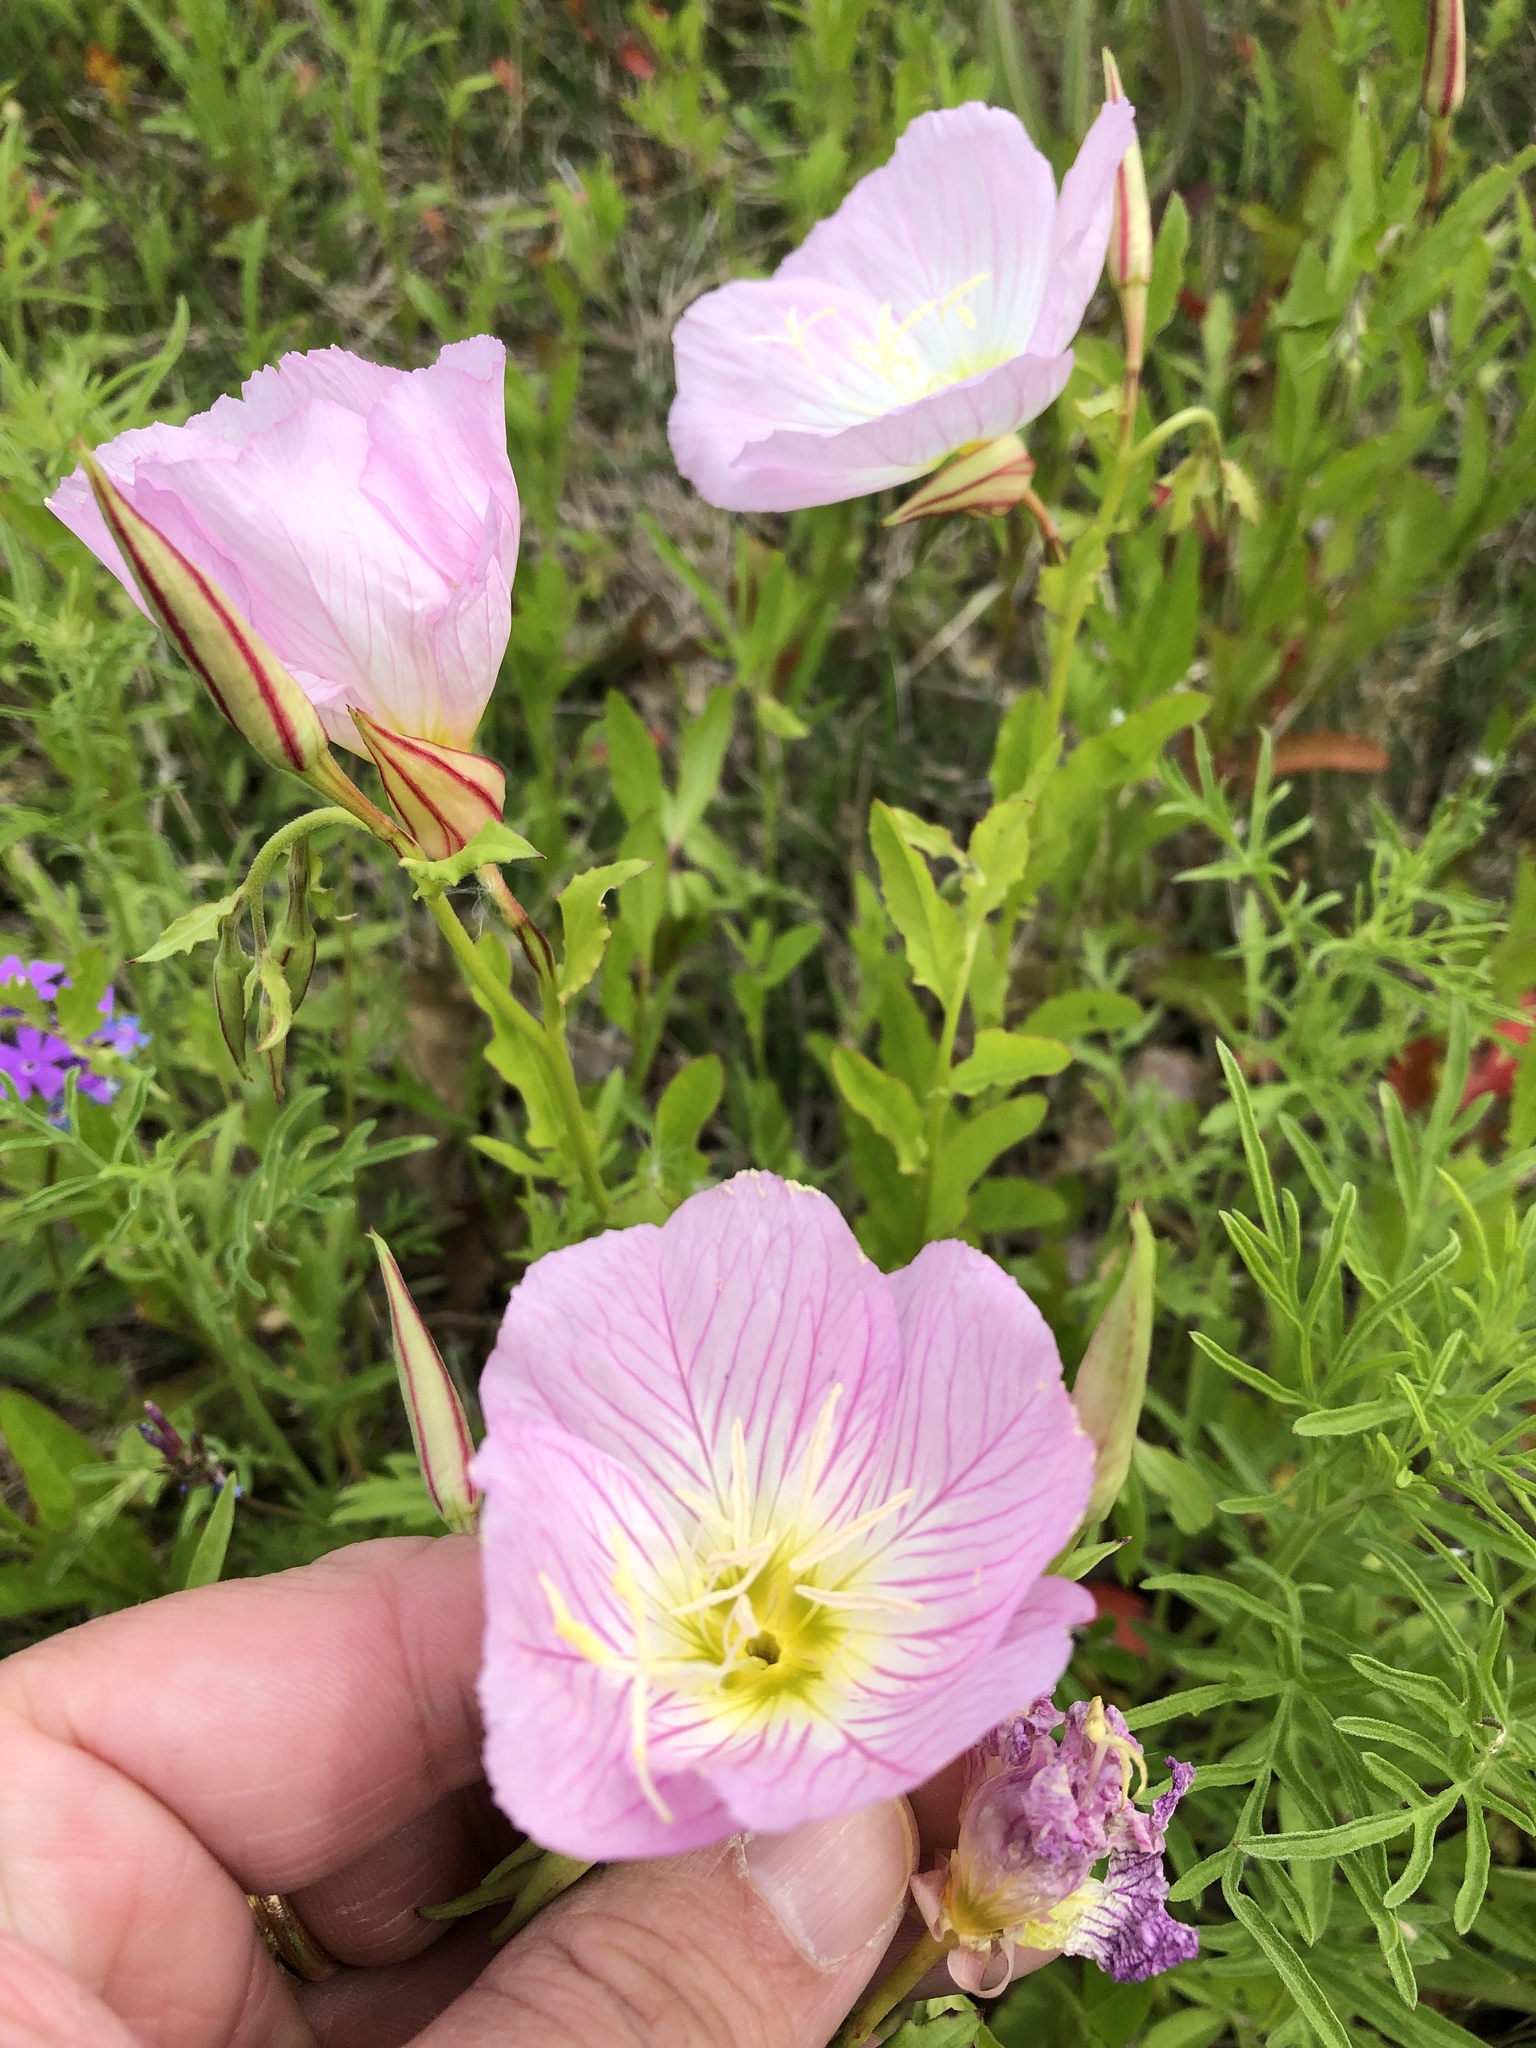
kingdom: Plantae
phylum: Tracheophyta
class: Magnoliopsida
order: Myrtales
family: Onagraceae
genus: Oenothera
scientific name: Oenothera speciosa
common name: White evening-primrose
